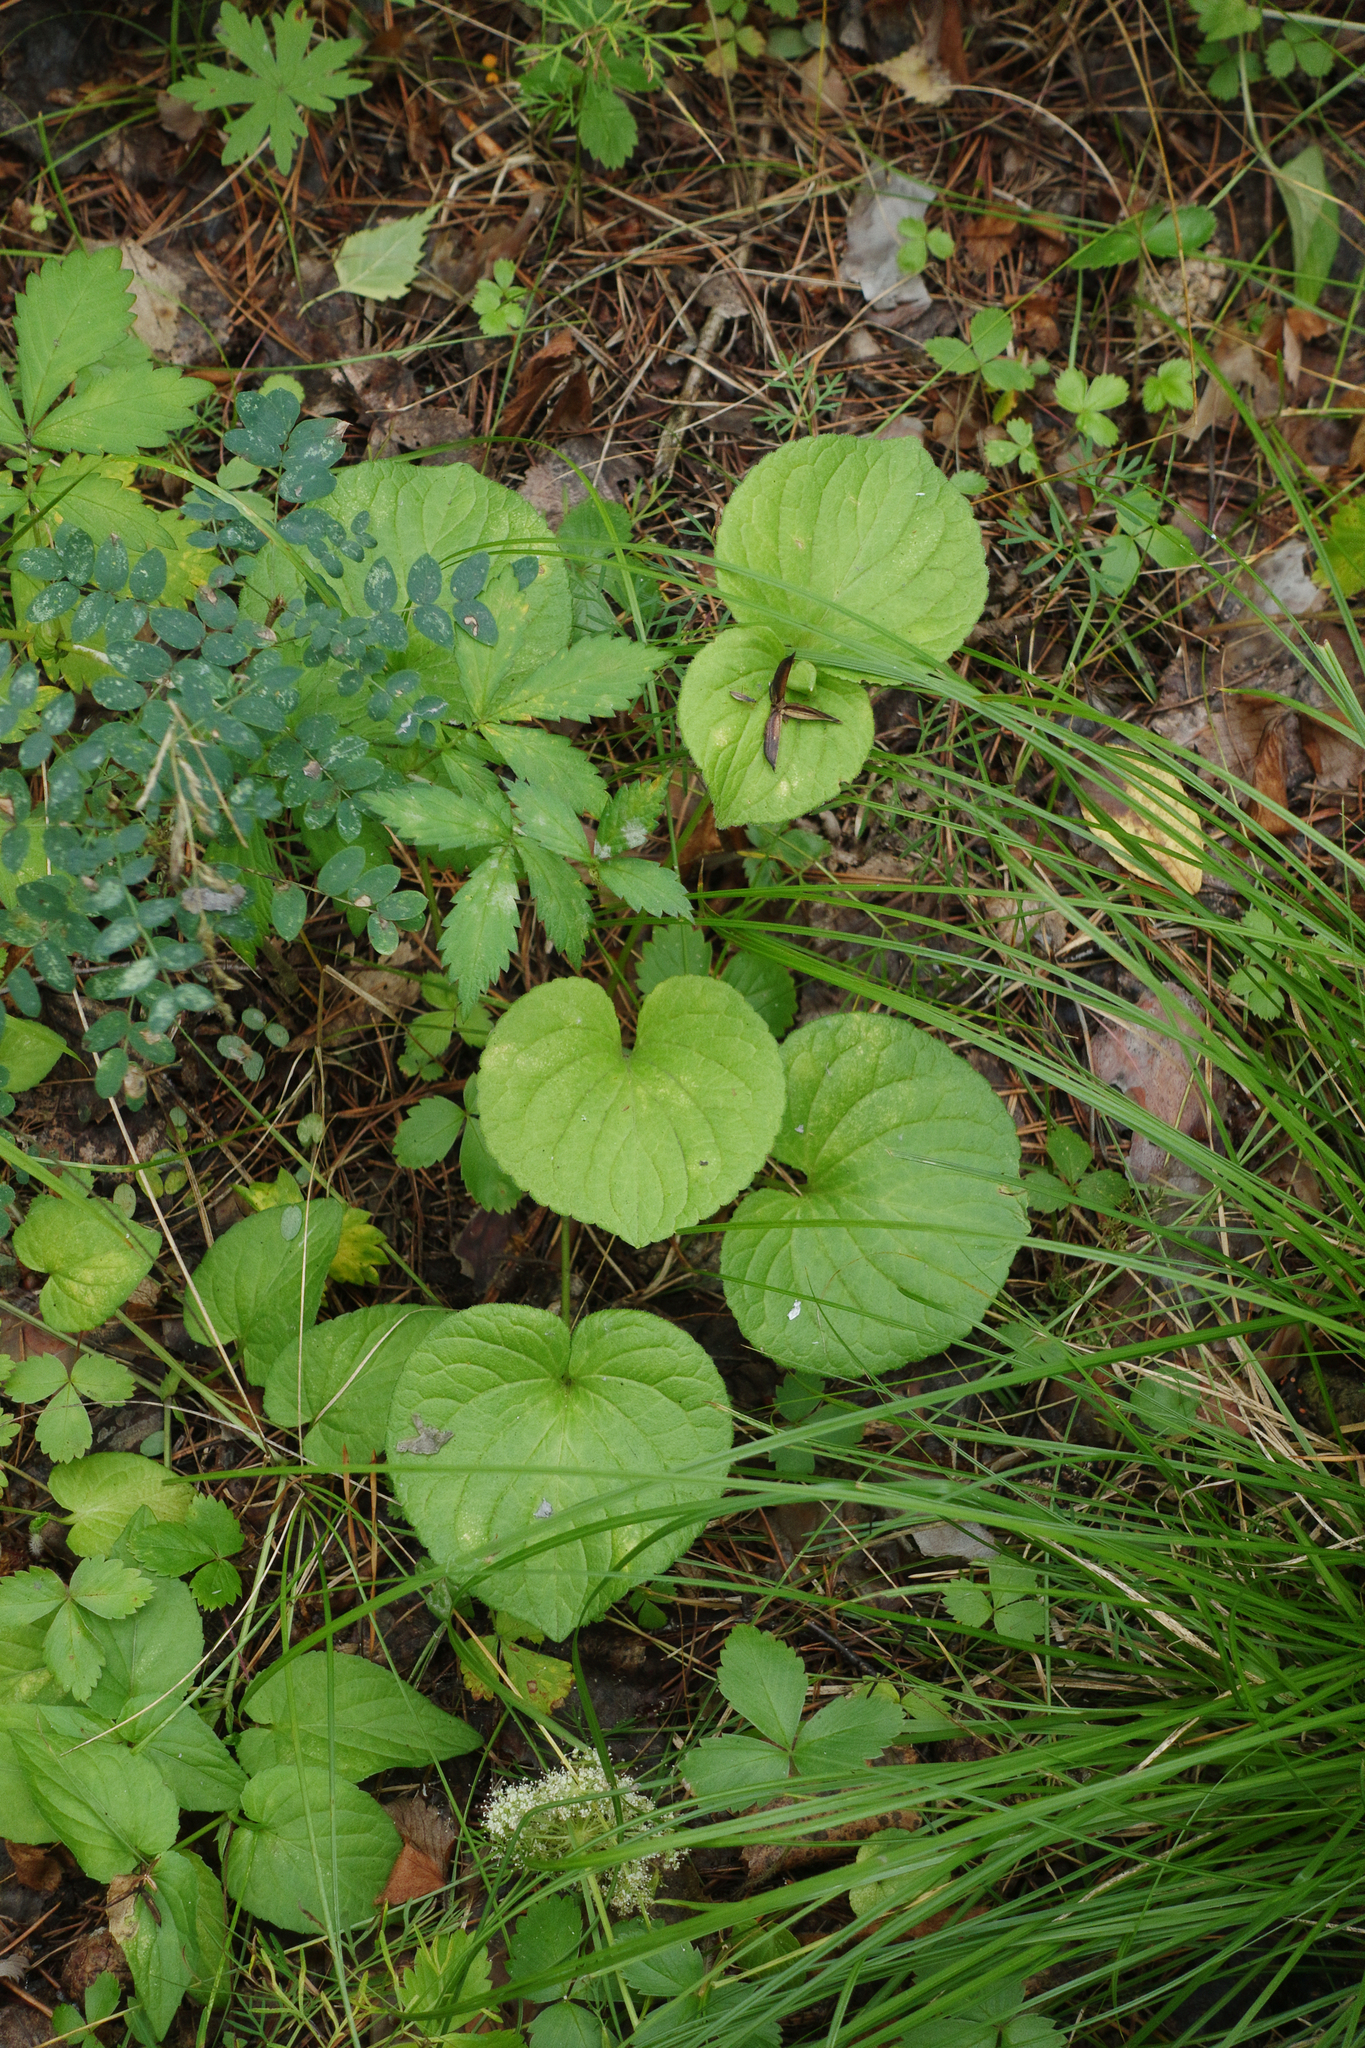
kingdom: Plantae
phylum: Tracheophyta
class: Magnoliopsida
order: Malpighiales
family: Violaceae
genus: Viola
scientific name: Viola mirabilis
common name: Wonder violet
